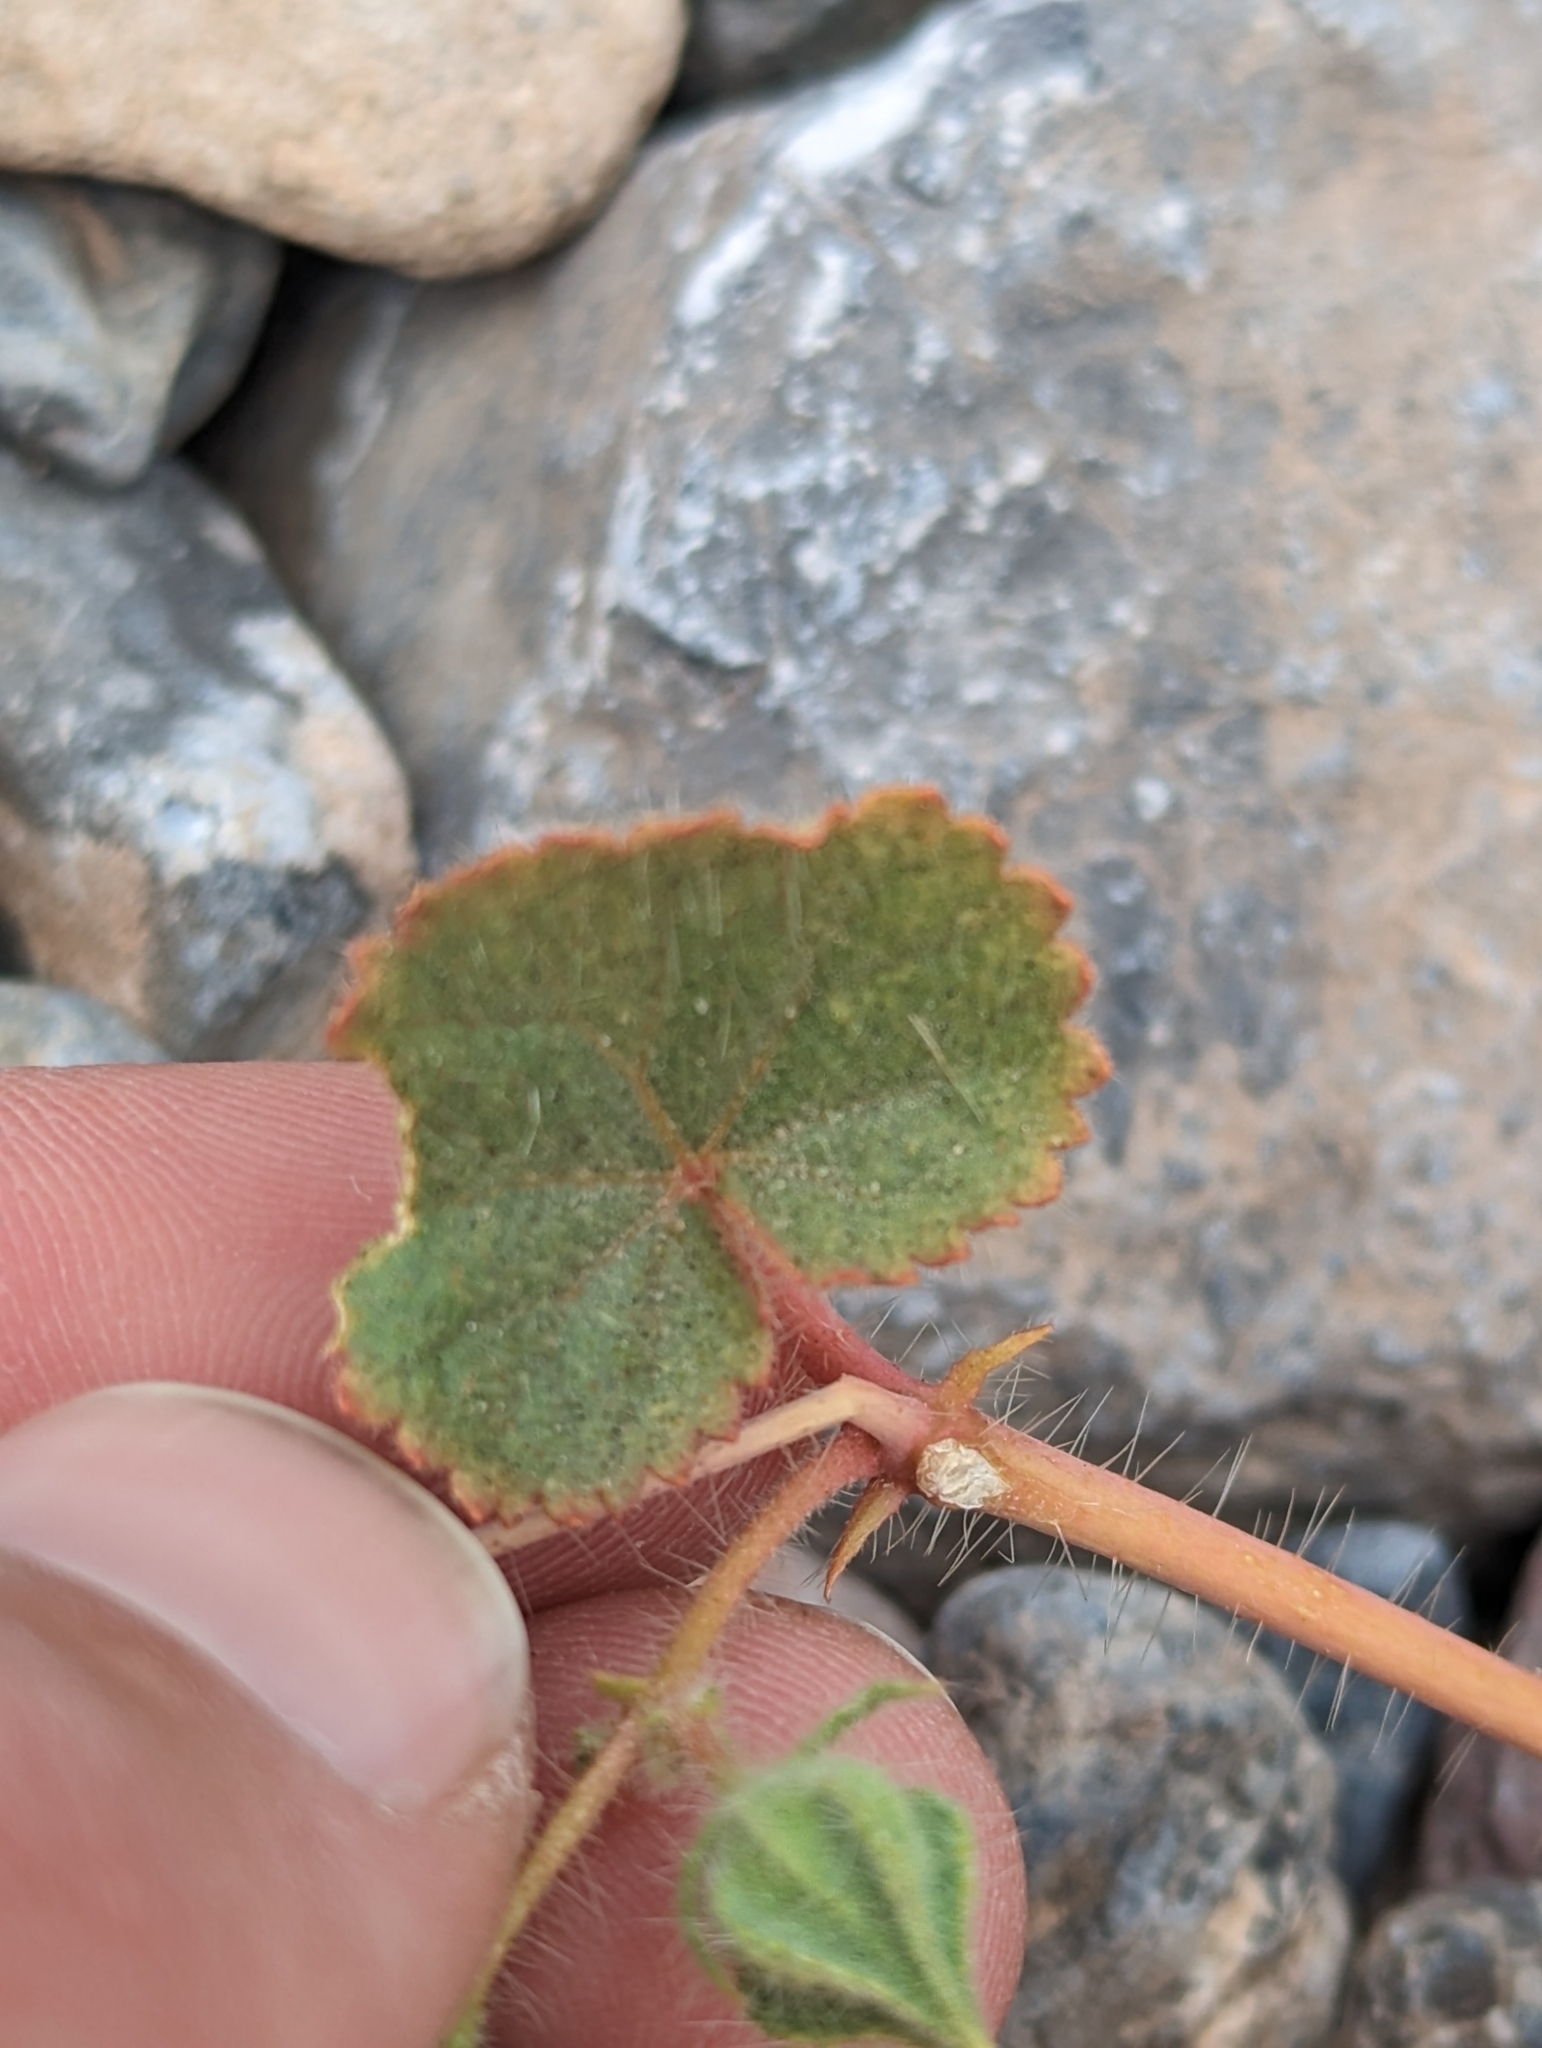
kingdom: Plantae
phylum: Tracheophyta
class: Magnoliopsida
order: Malvales
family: Malvaceae
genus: Eremalche
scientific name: Eremalche rotundifolia
